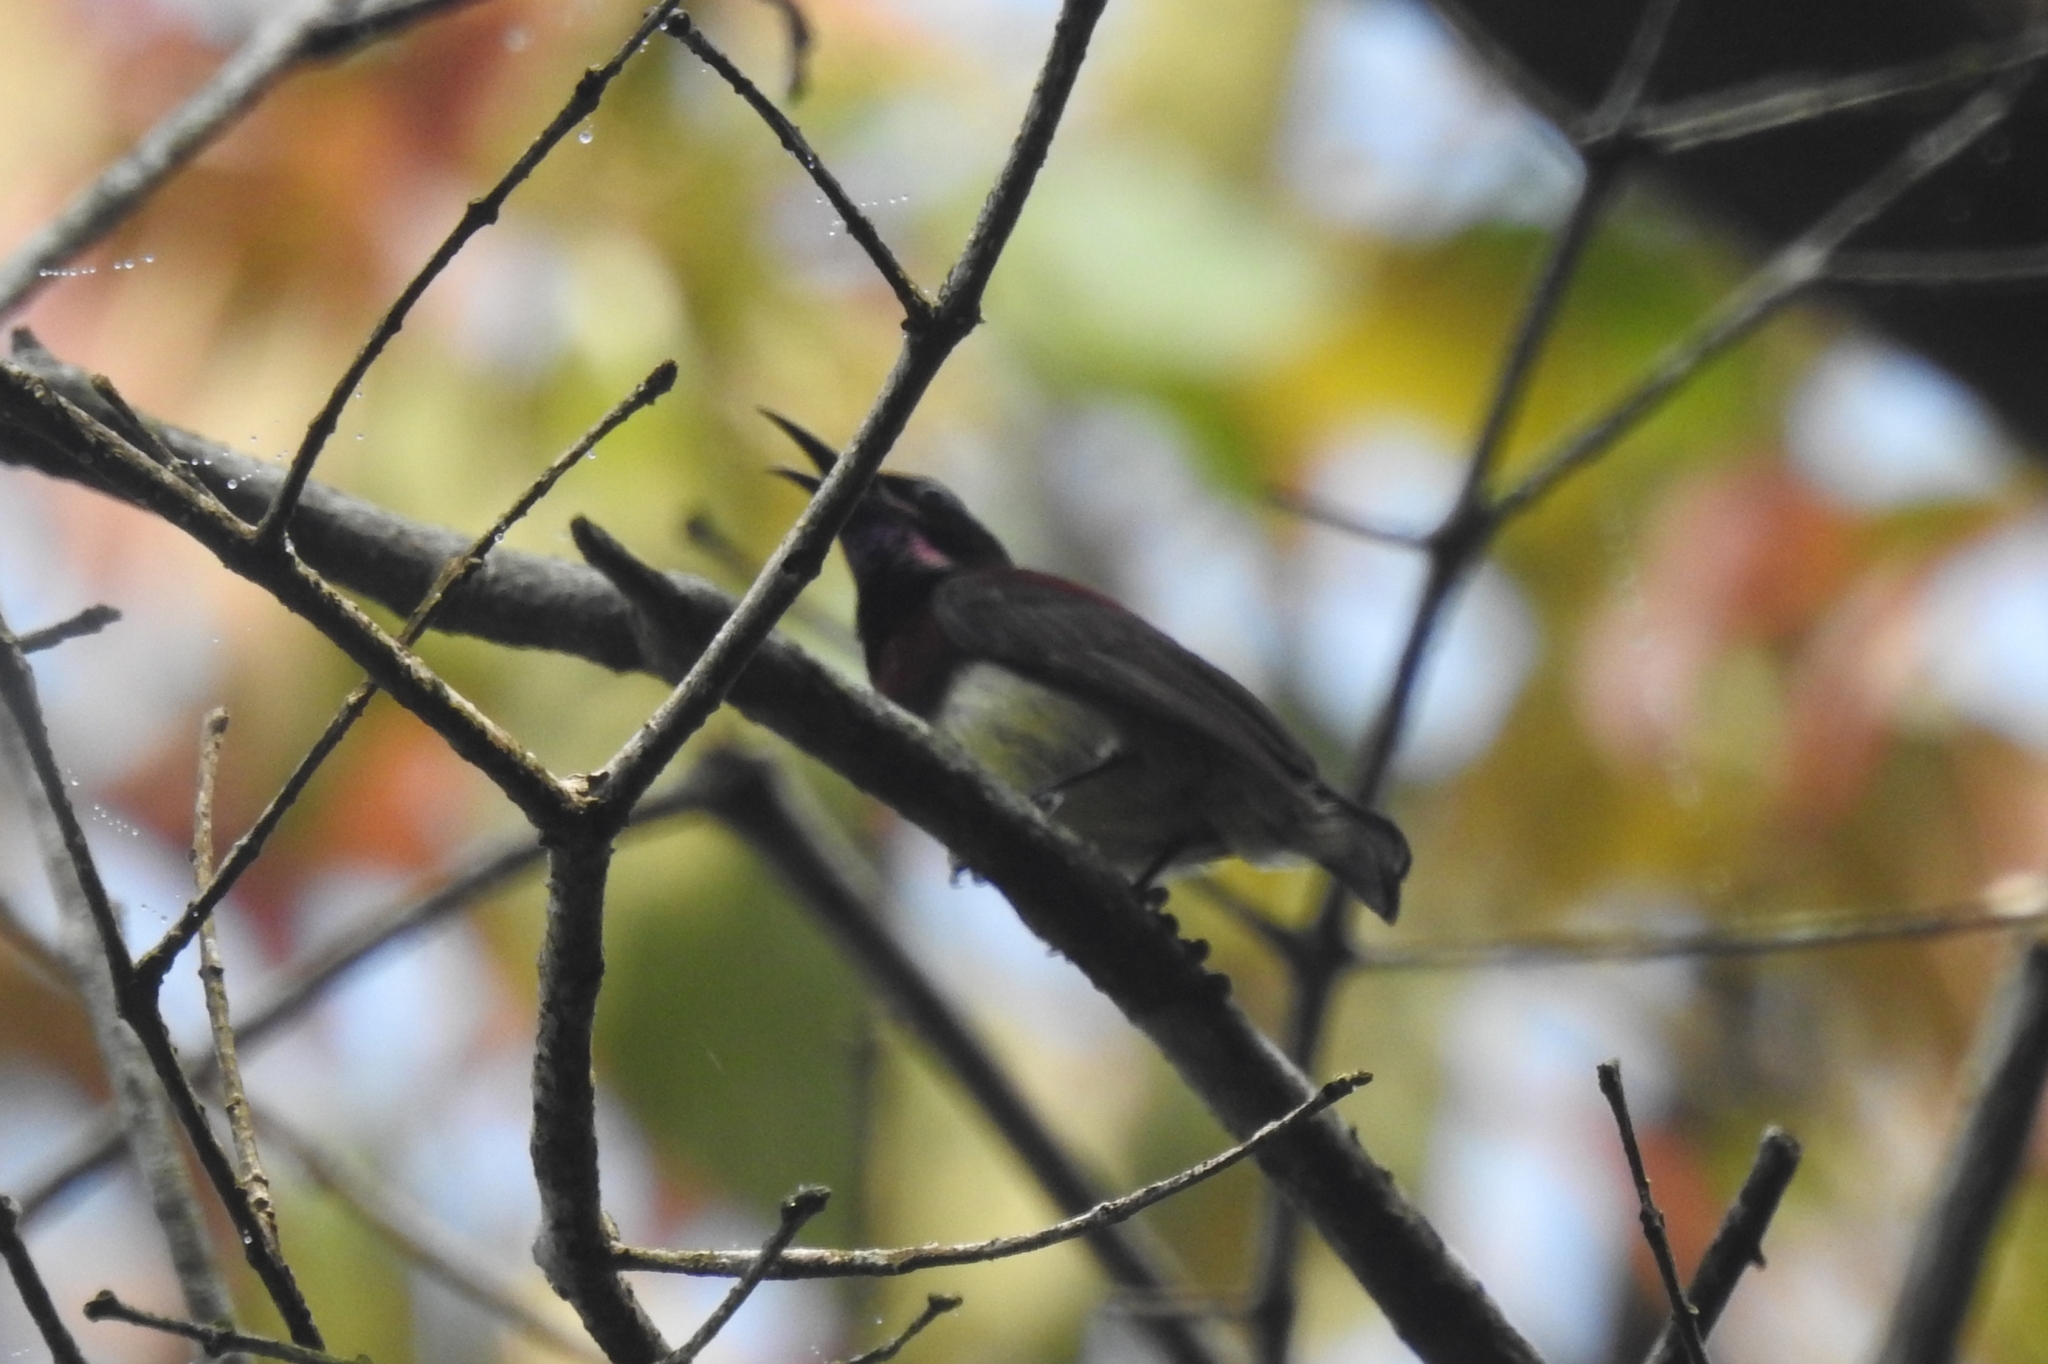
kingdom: Animalia
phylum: Chordata
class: Aves
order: Passeriformes
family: Nectariniidae
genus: Leptocoma
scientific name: Leptocoma minima
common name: Crimson-backed sunbird
